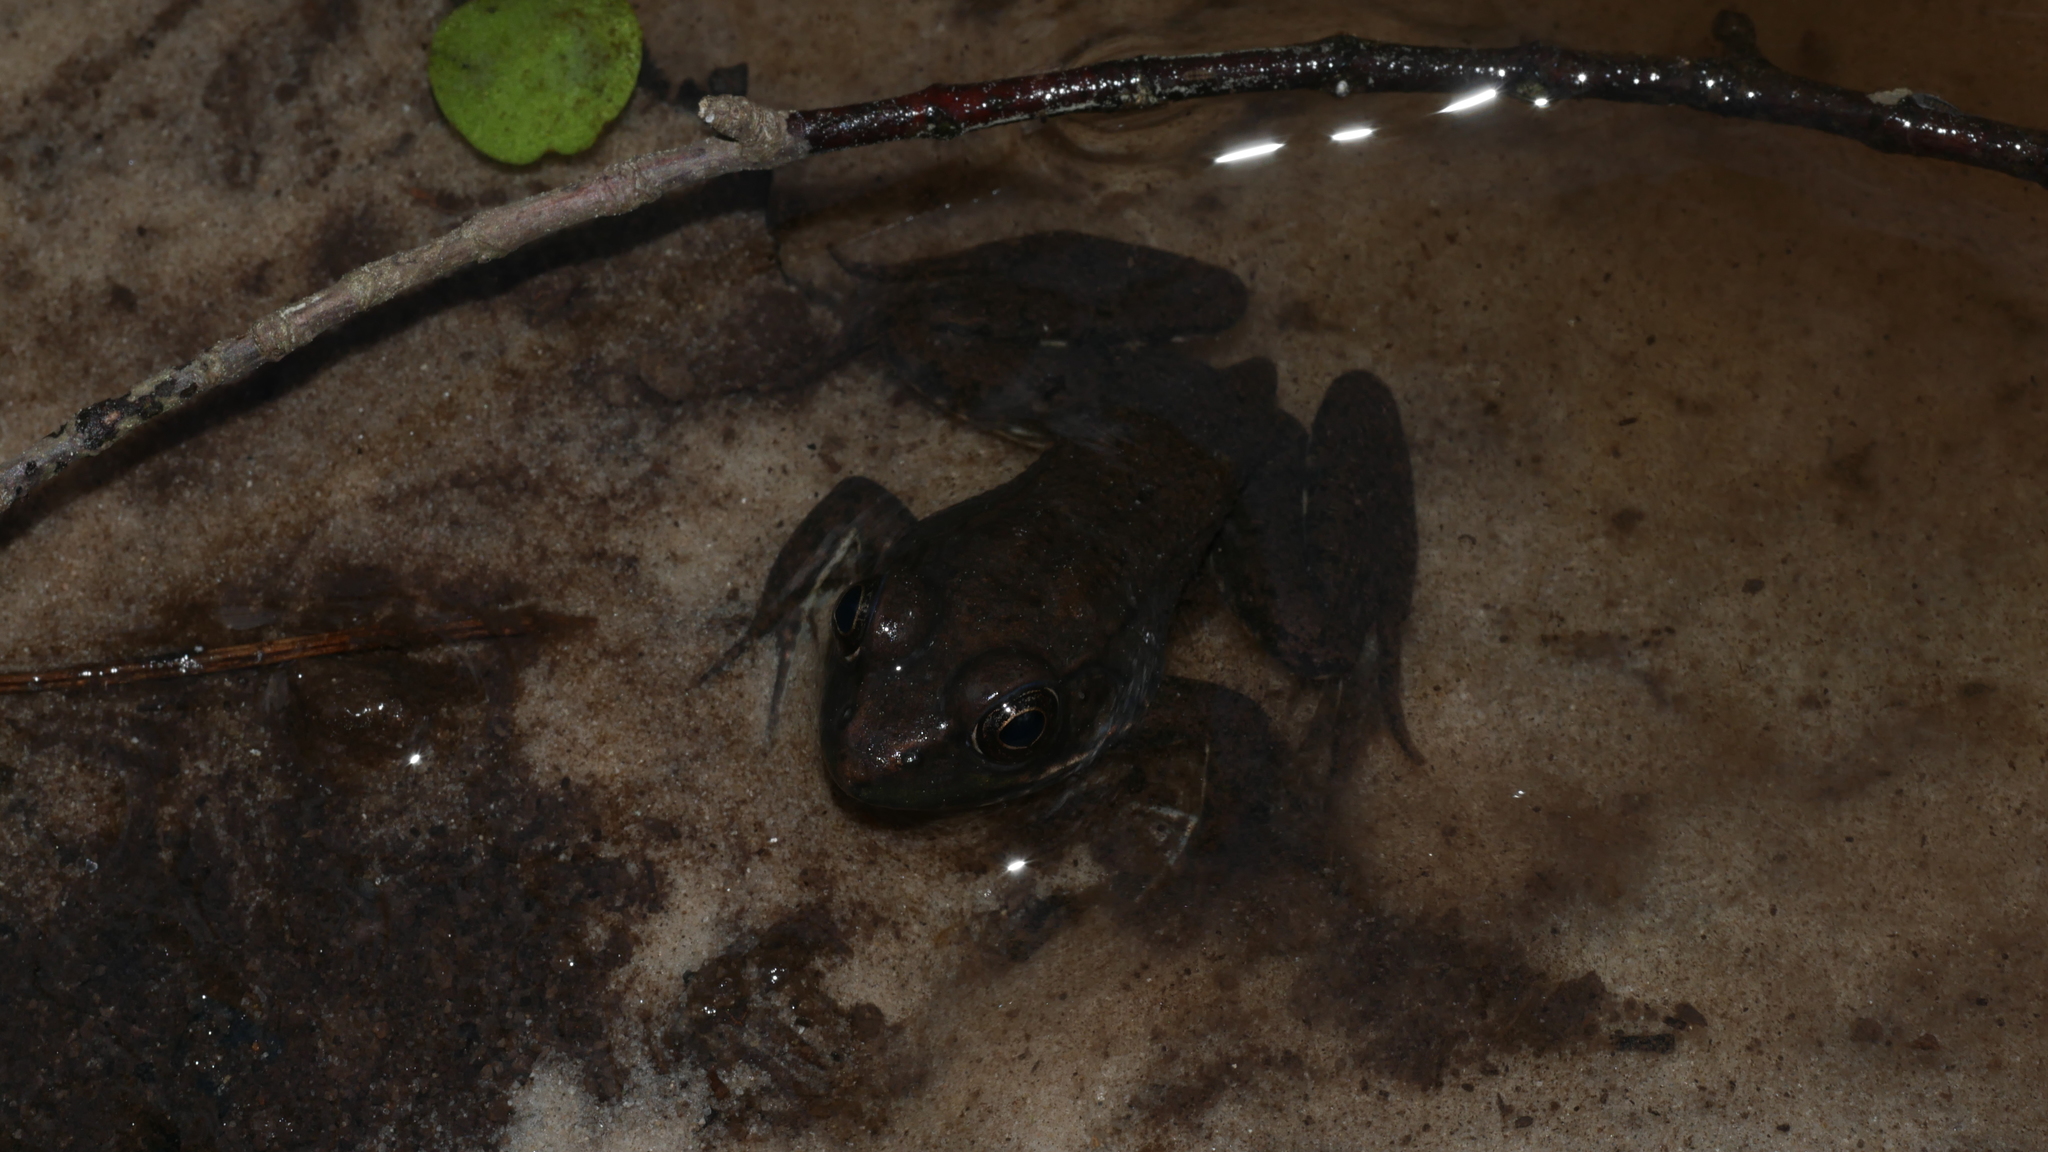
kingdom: Animalia
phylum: Chordata
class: Amphibia
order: Anura
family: Ranidae
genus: Lithobates
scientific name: Lithobates clamitans
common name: Green frog
